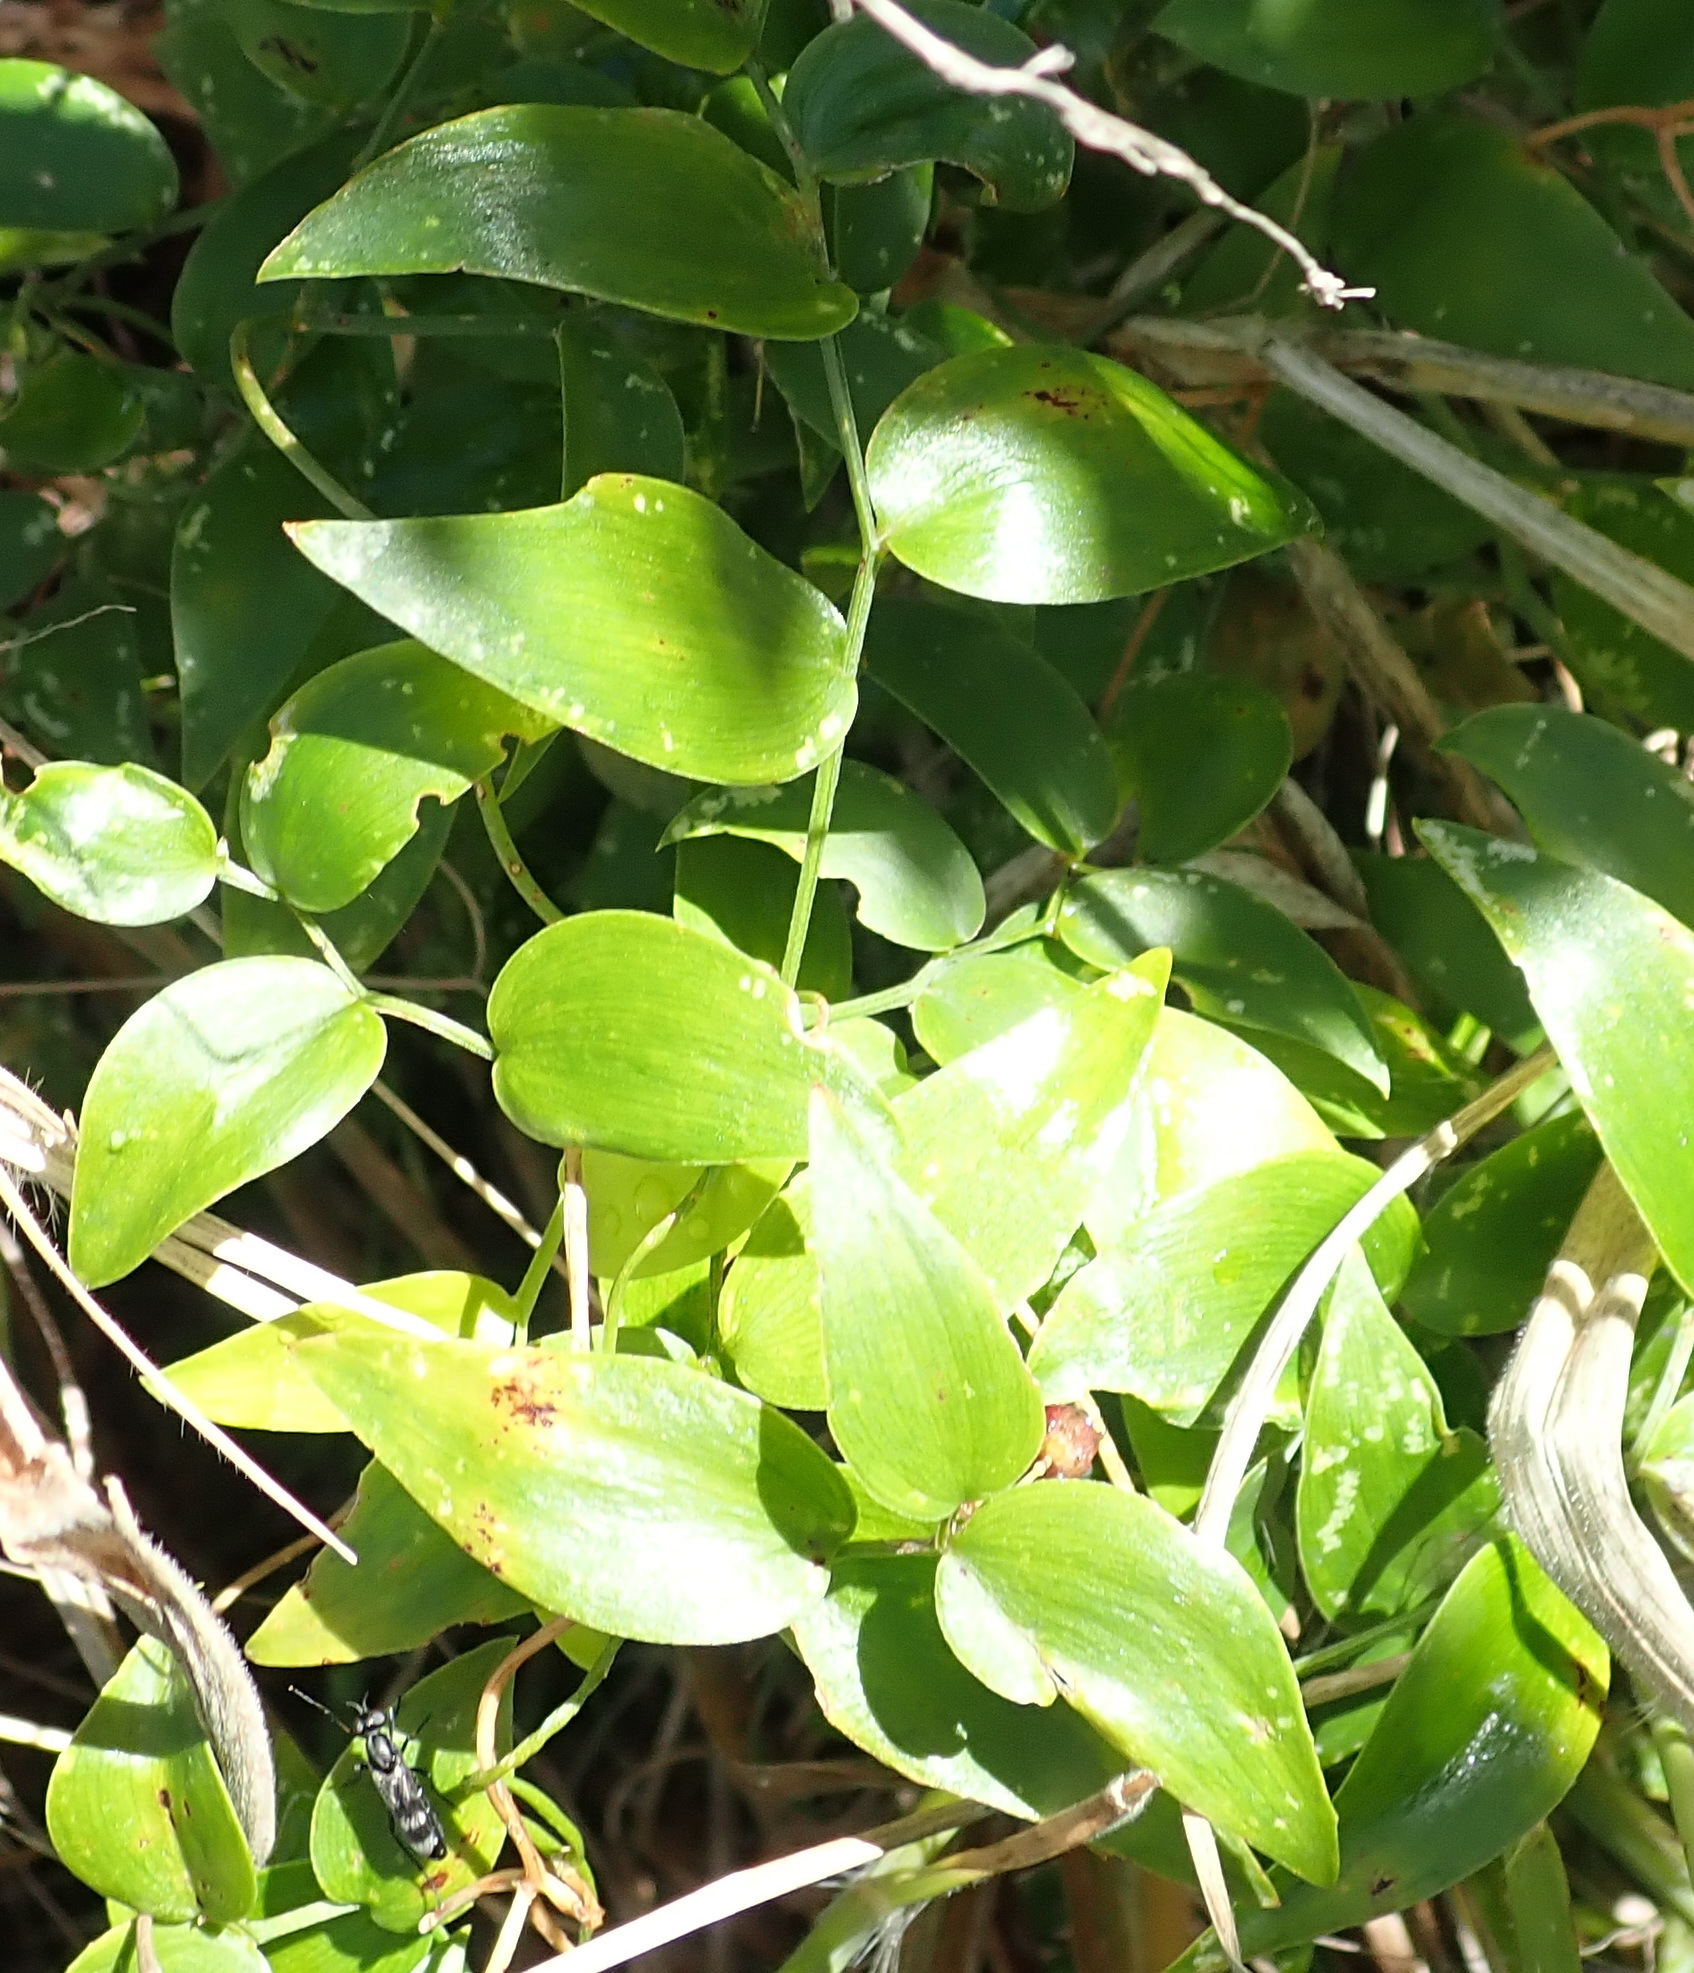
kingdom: Plantae
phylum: Tracheophyta
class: Liliopsida
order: Asparagales
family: Asparagaceae
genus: Asparagus
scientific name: Asparagus asparagoides
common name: African asparagus fern
